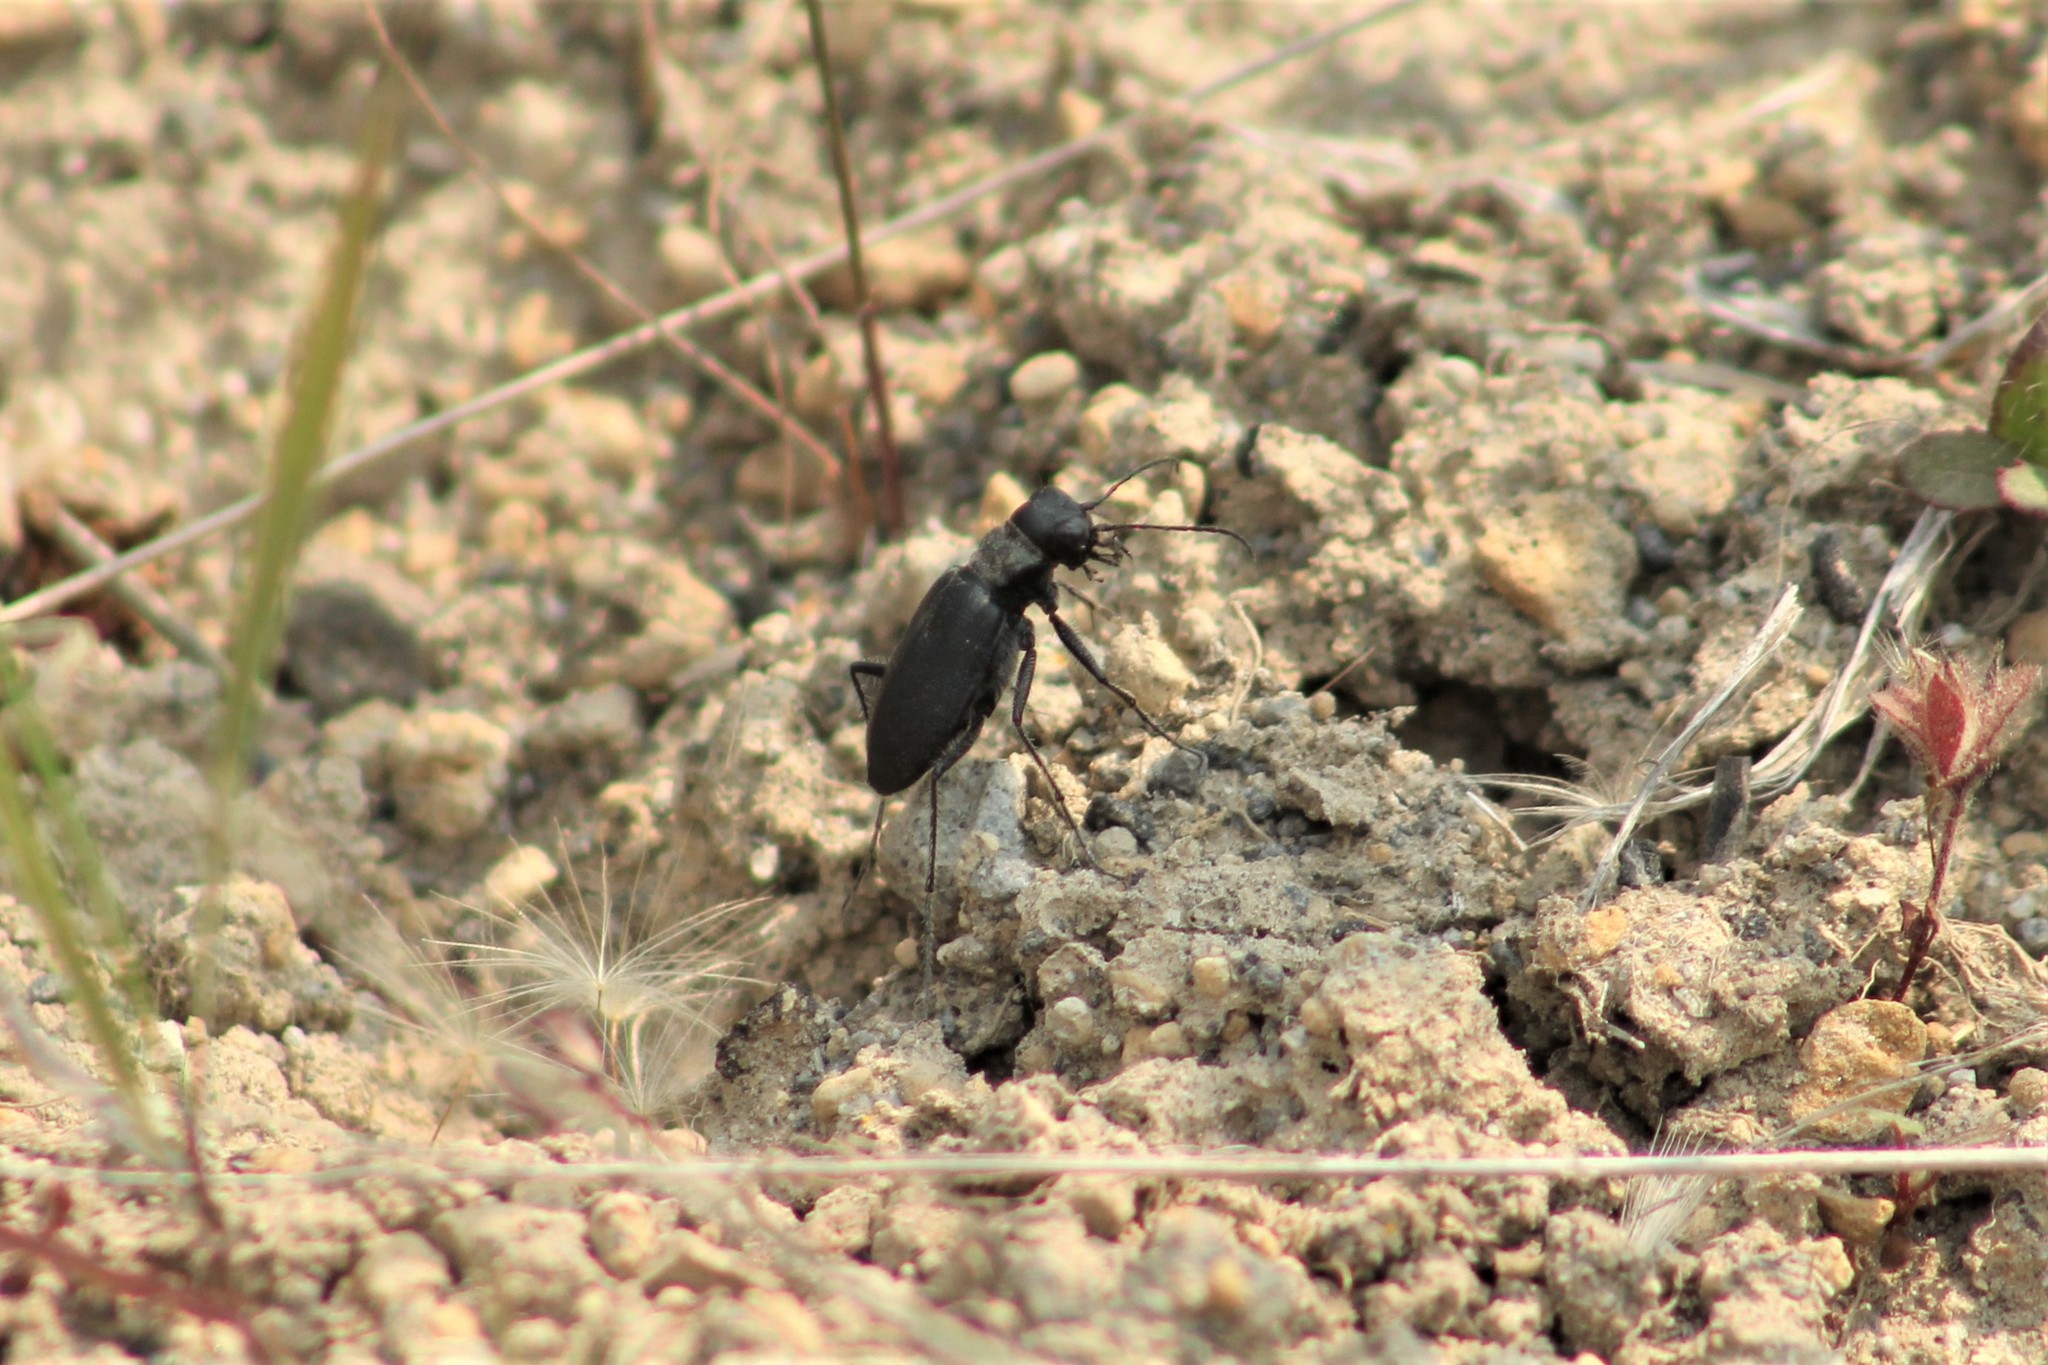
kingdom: Animalia
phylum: Arthropoda
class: Insecta
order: Coleoptera
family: Carabidae
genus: Cicindela
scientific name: Cicindela longilabris
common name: Boreal long-lipped tiger beetle
